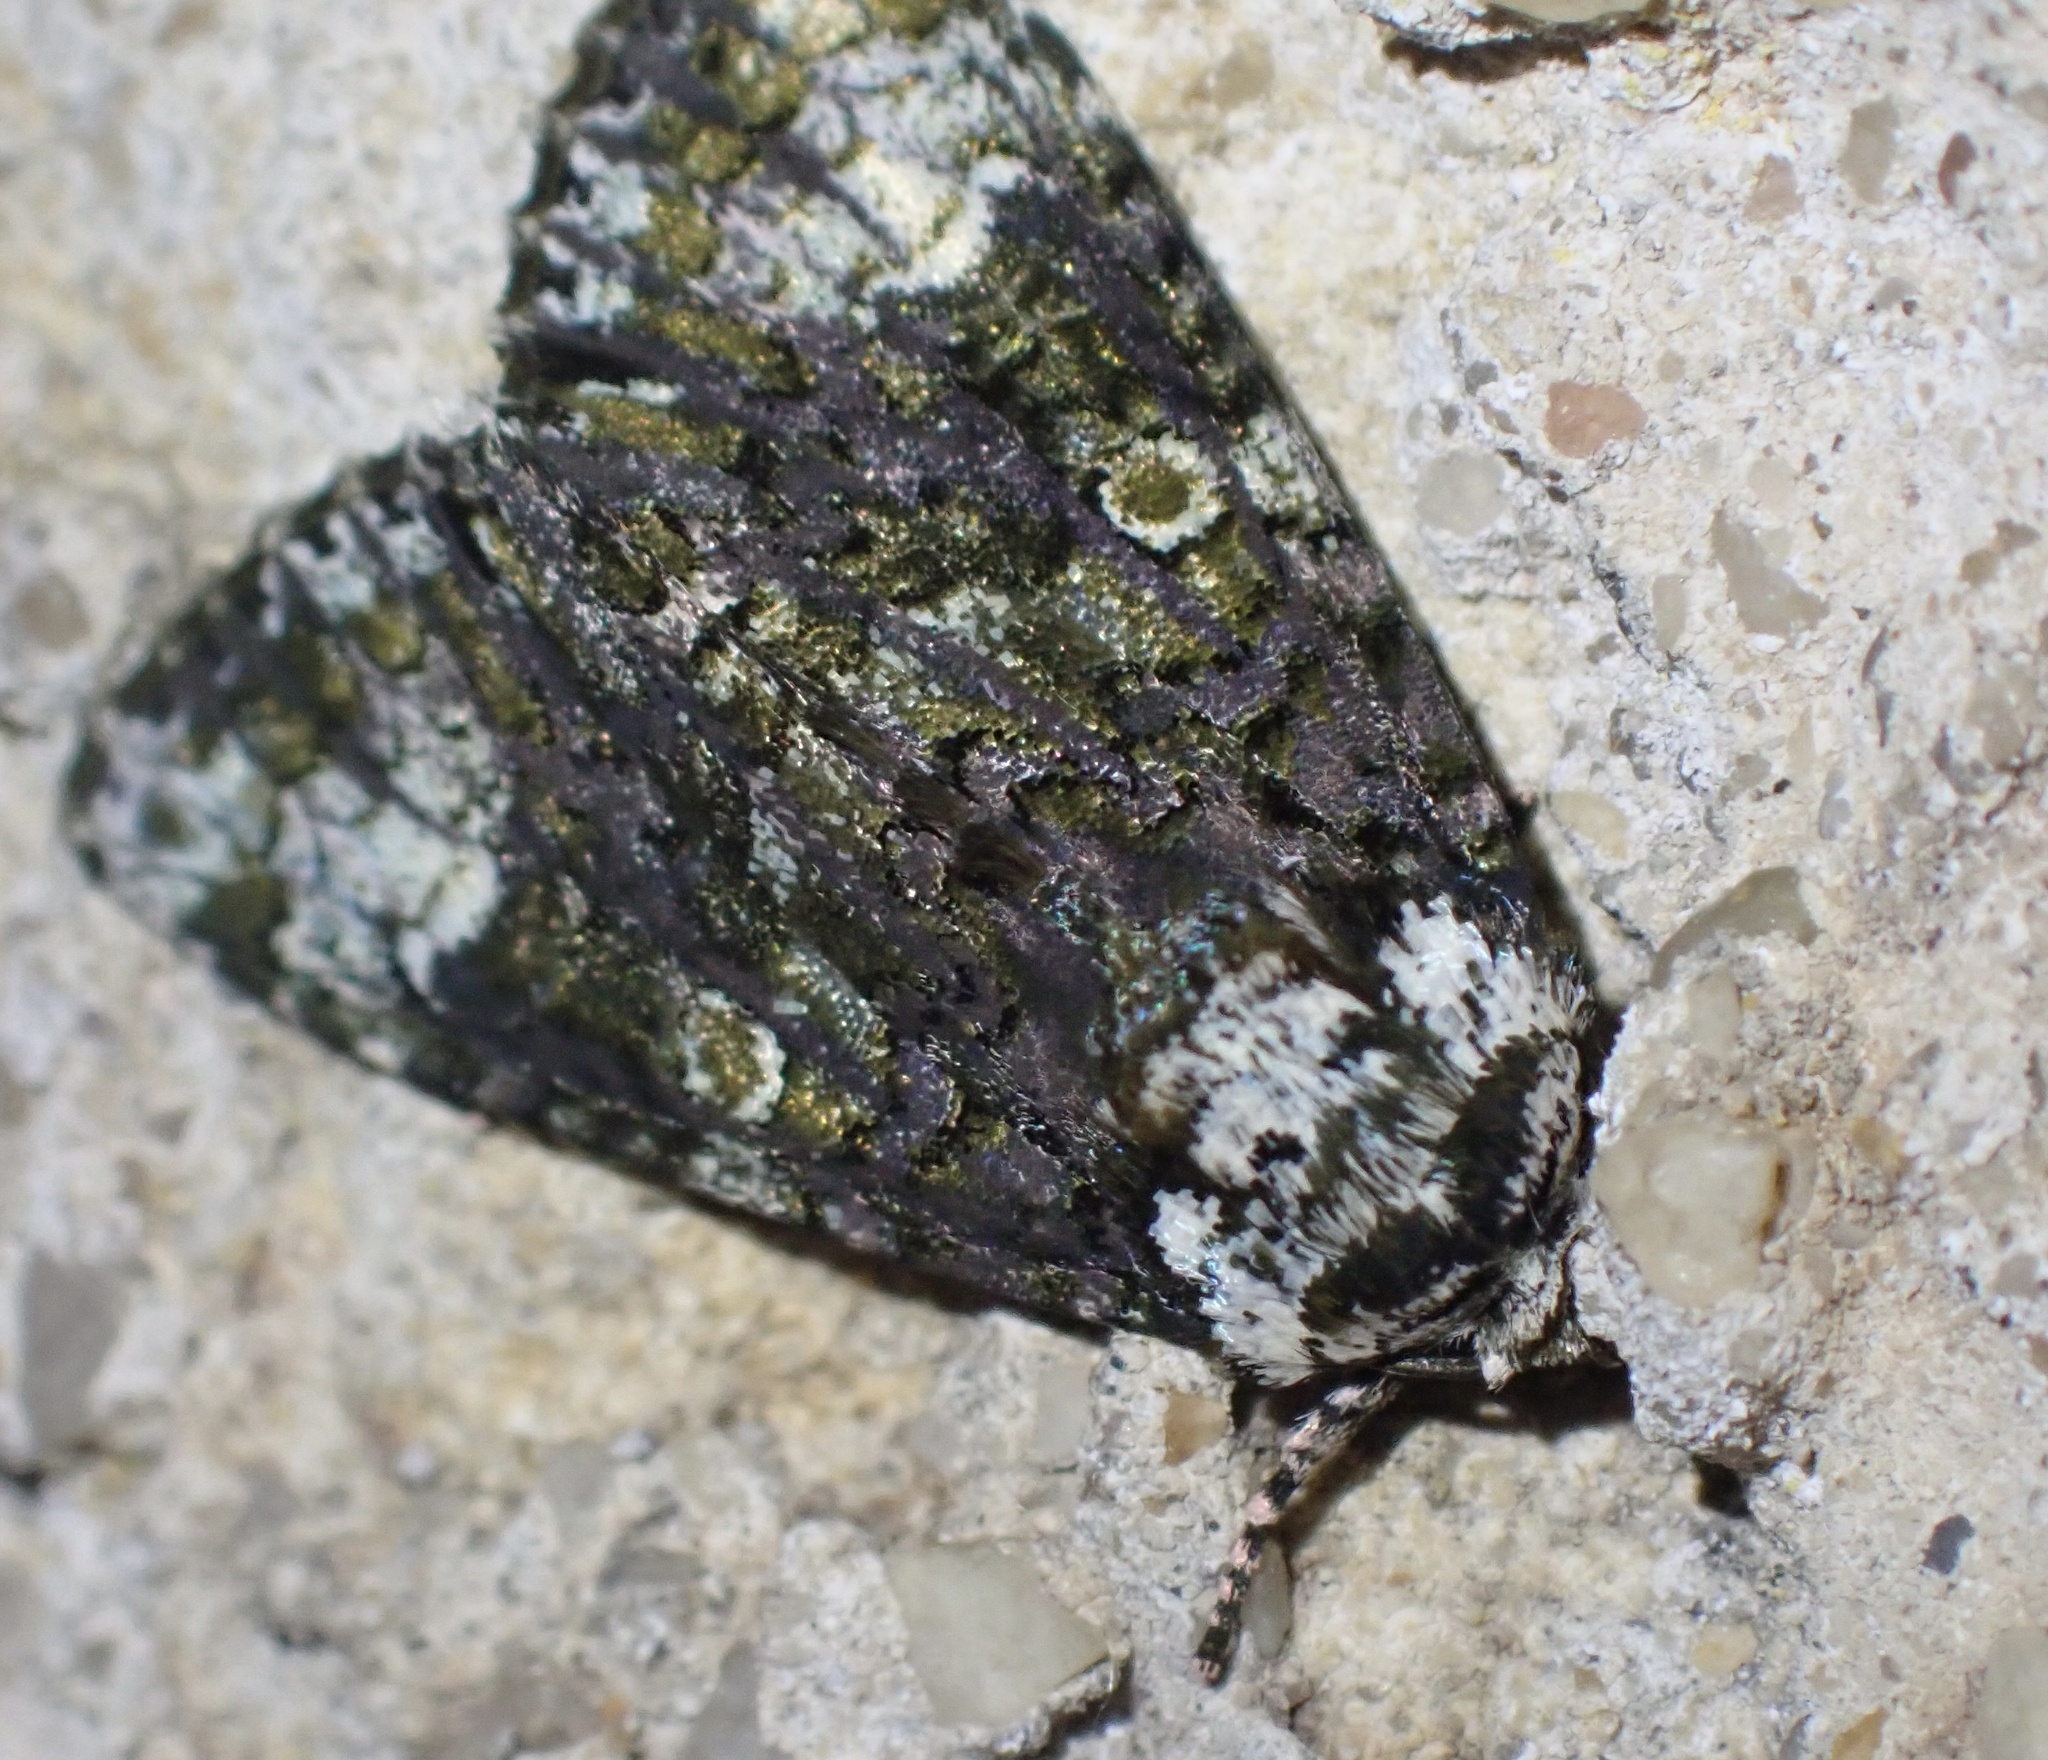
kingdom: Animalia
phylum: Arthropoda
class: Insecta
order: Lepidoptera
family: Noctuidae
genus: Craniophora
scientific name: Craniophora ligustri
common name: Coronet
